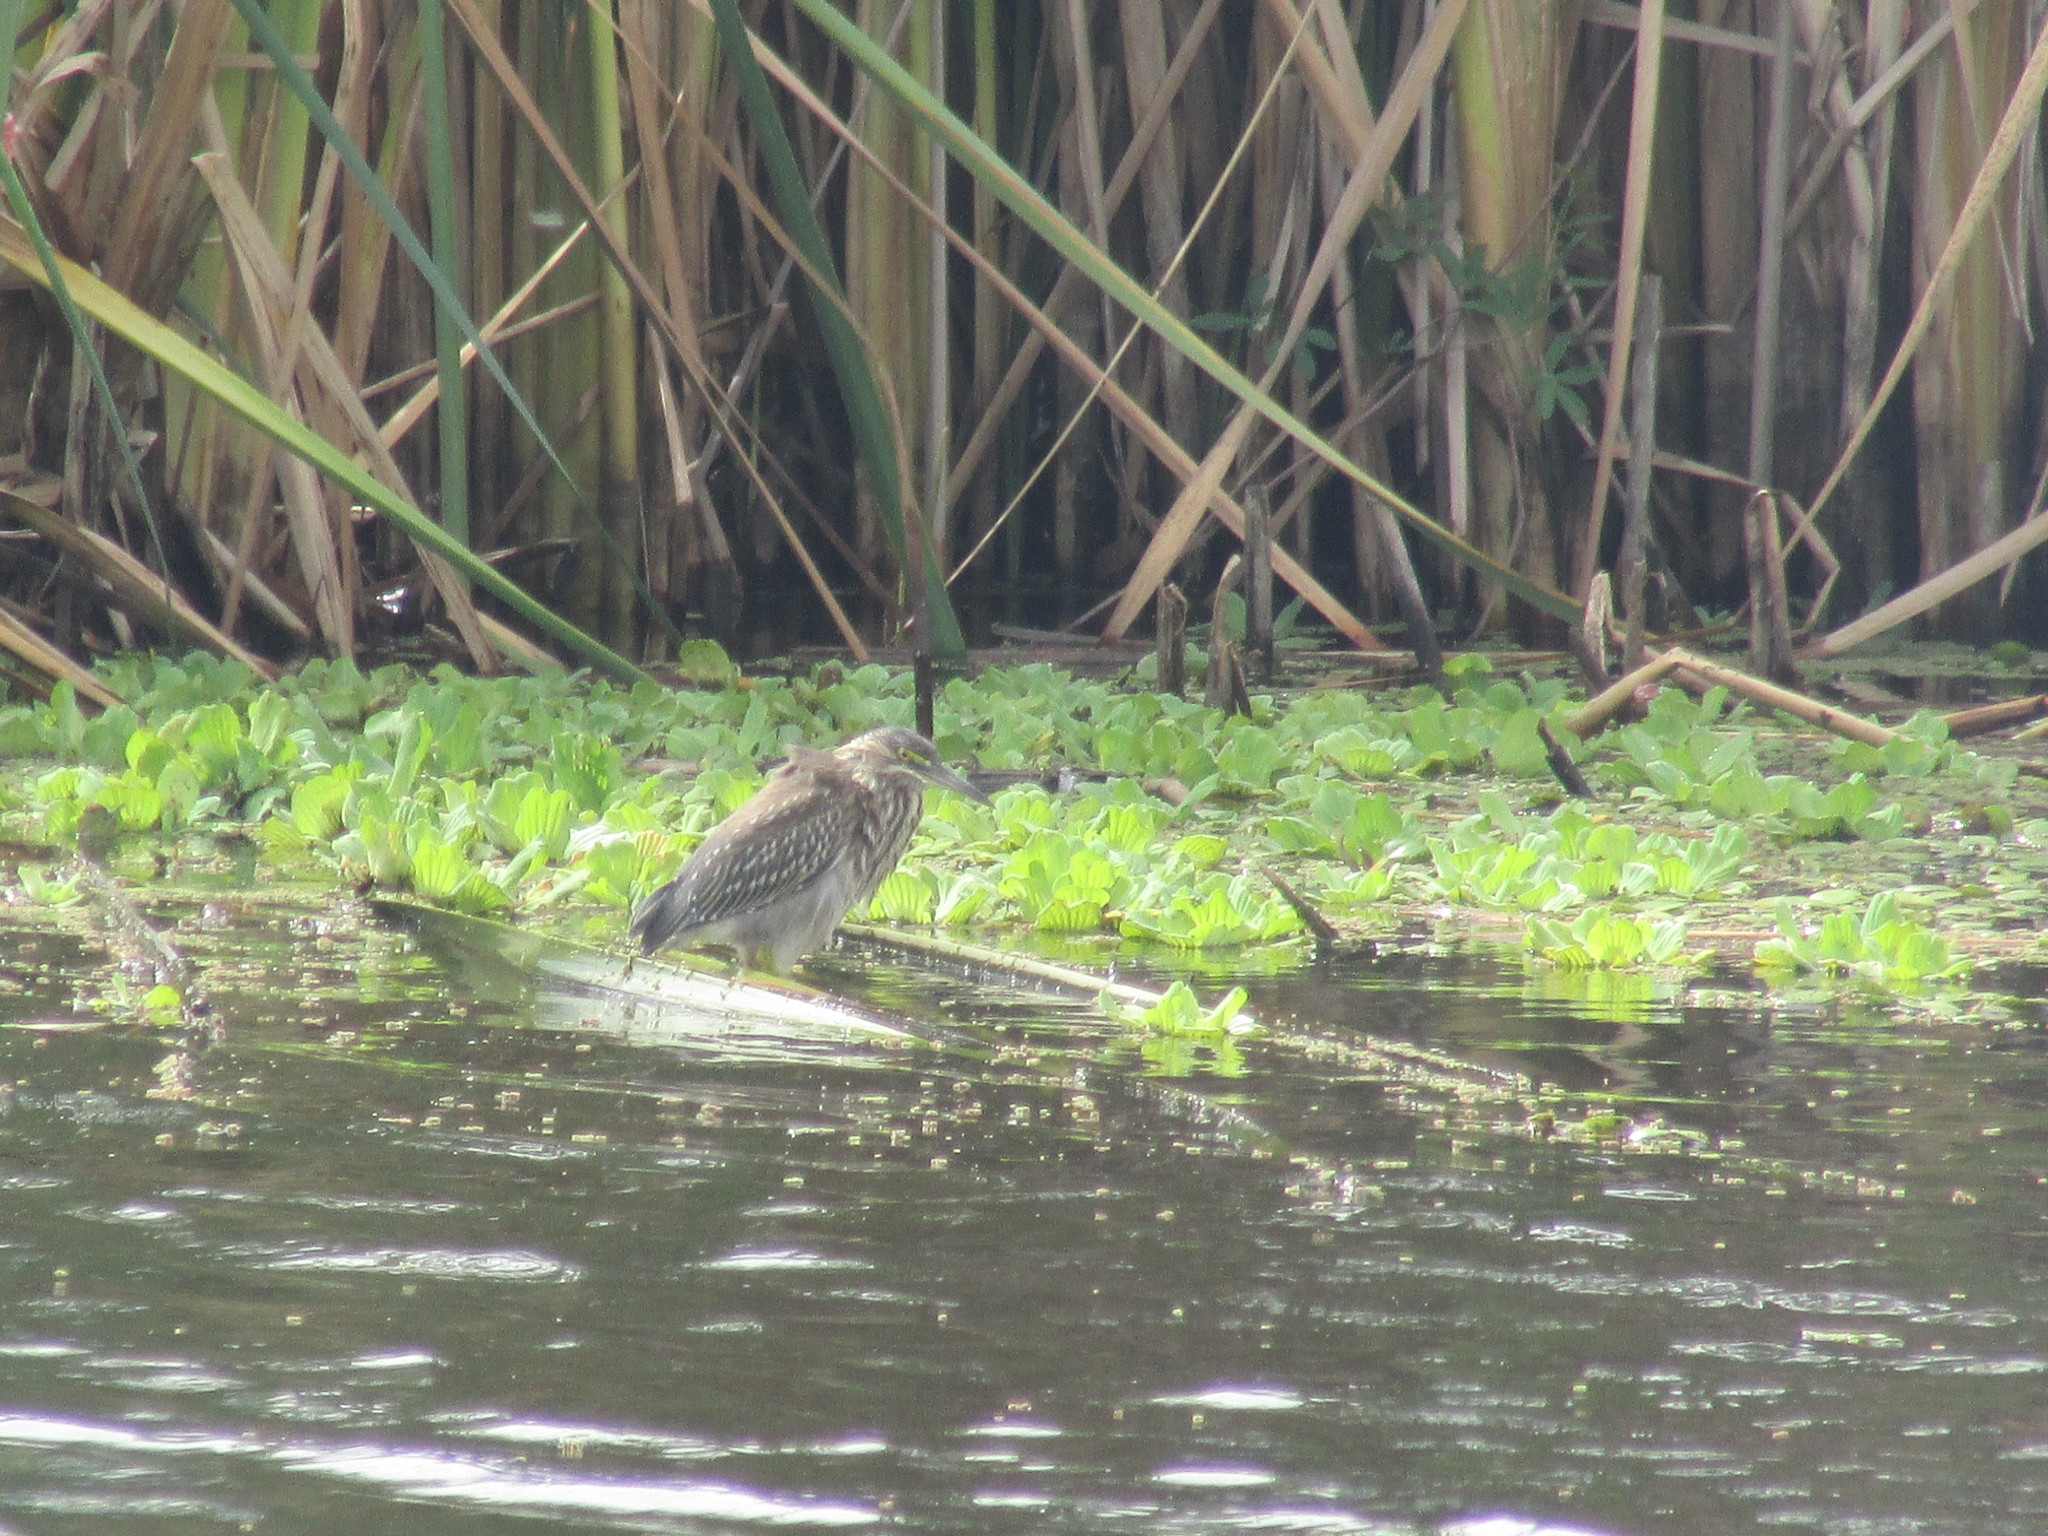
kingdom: Animalia
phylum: Chordata
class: Aves
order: Pelecaniformes
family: Ardeidae
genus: Butorides
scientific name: Butorides striata
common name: Striated heron
